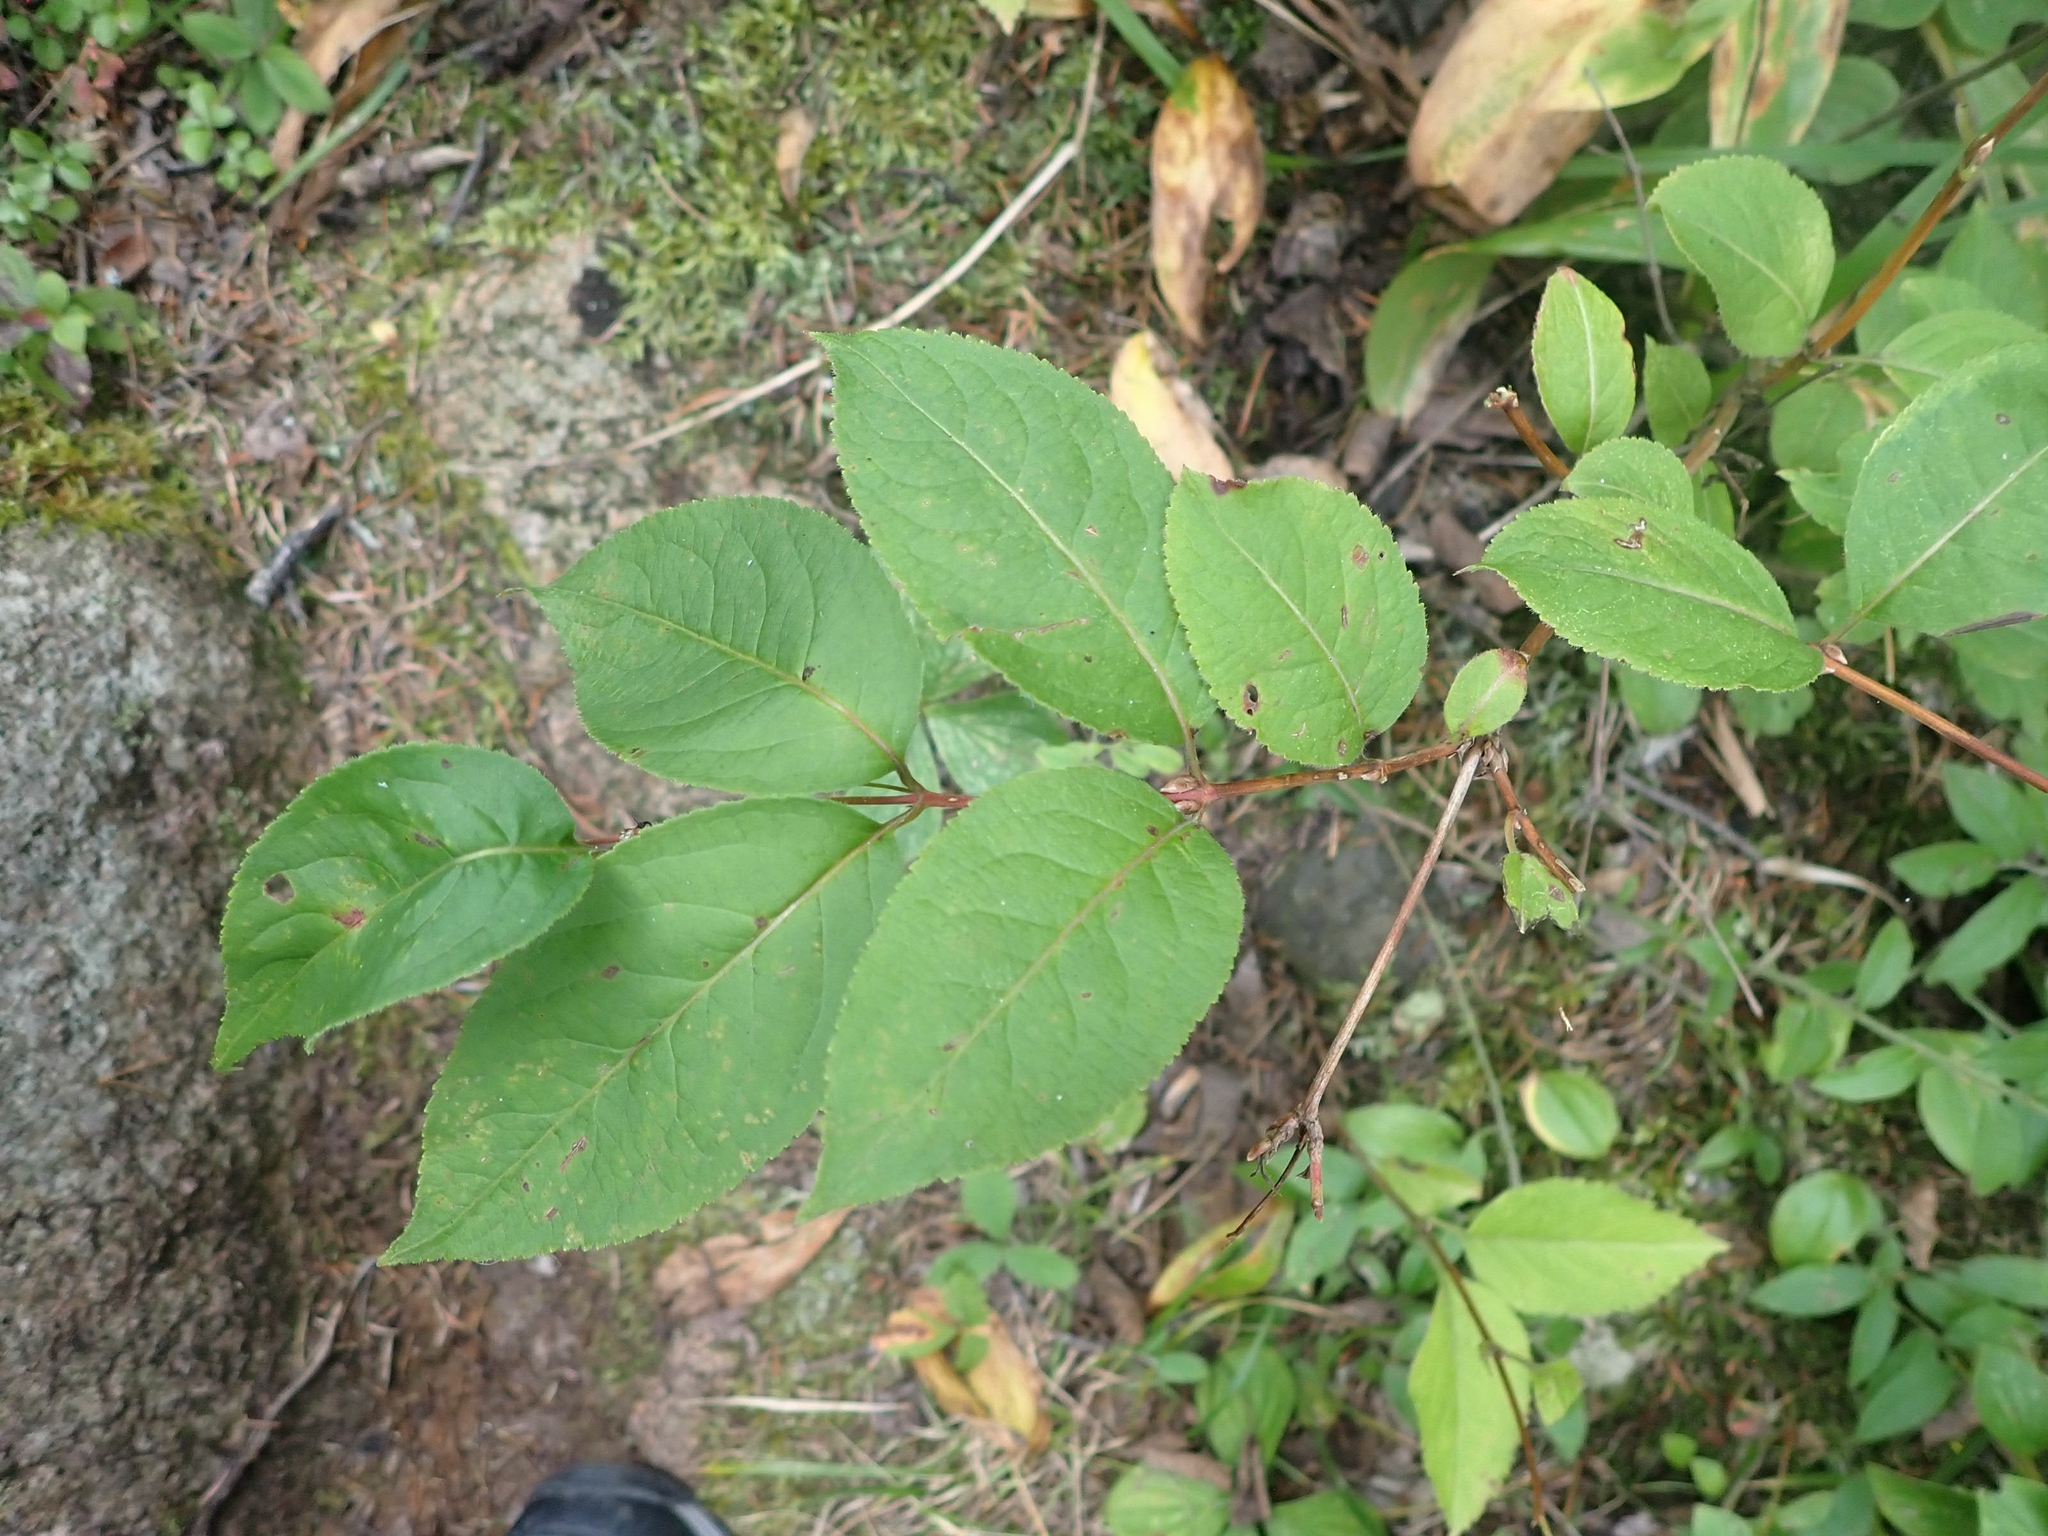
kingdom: Plantae
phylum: Tracheophyta
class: Magnoliopsida
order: Dipsacales
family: Caprifoliaceae
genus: Diervilla
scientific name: Diervilla lonicera
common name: Bush-honeysuckle
